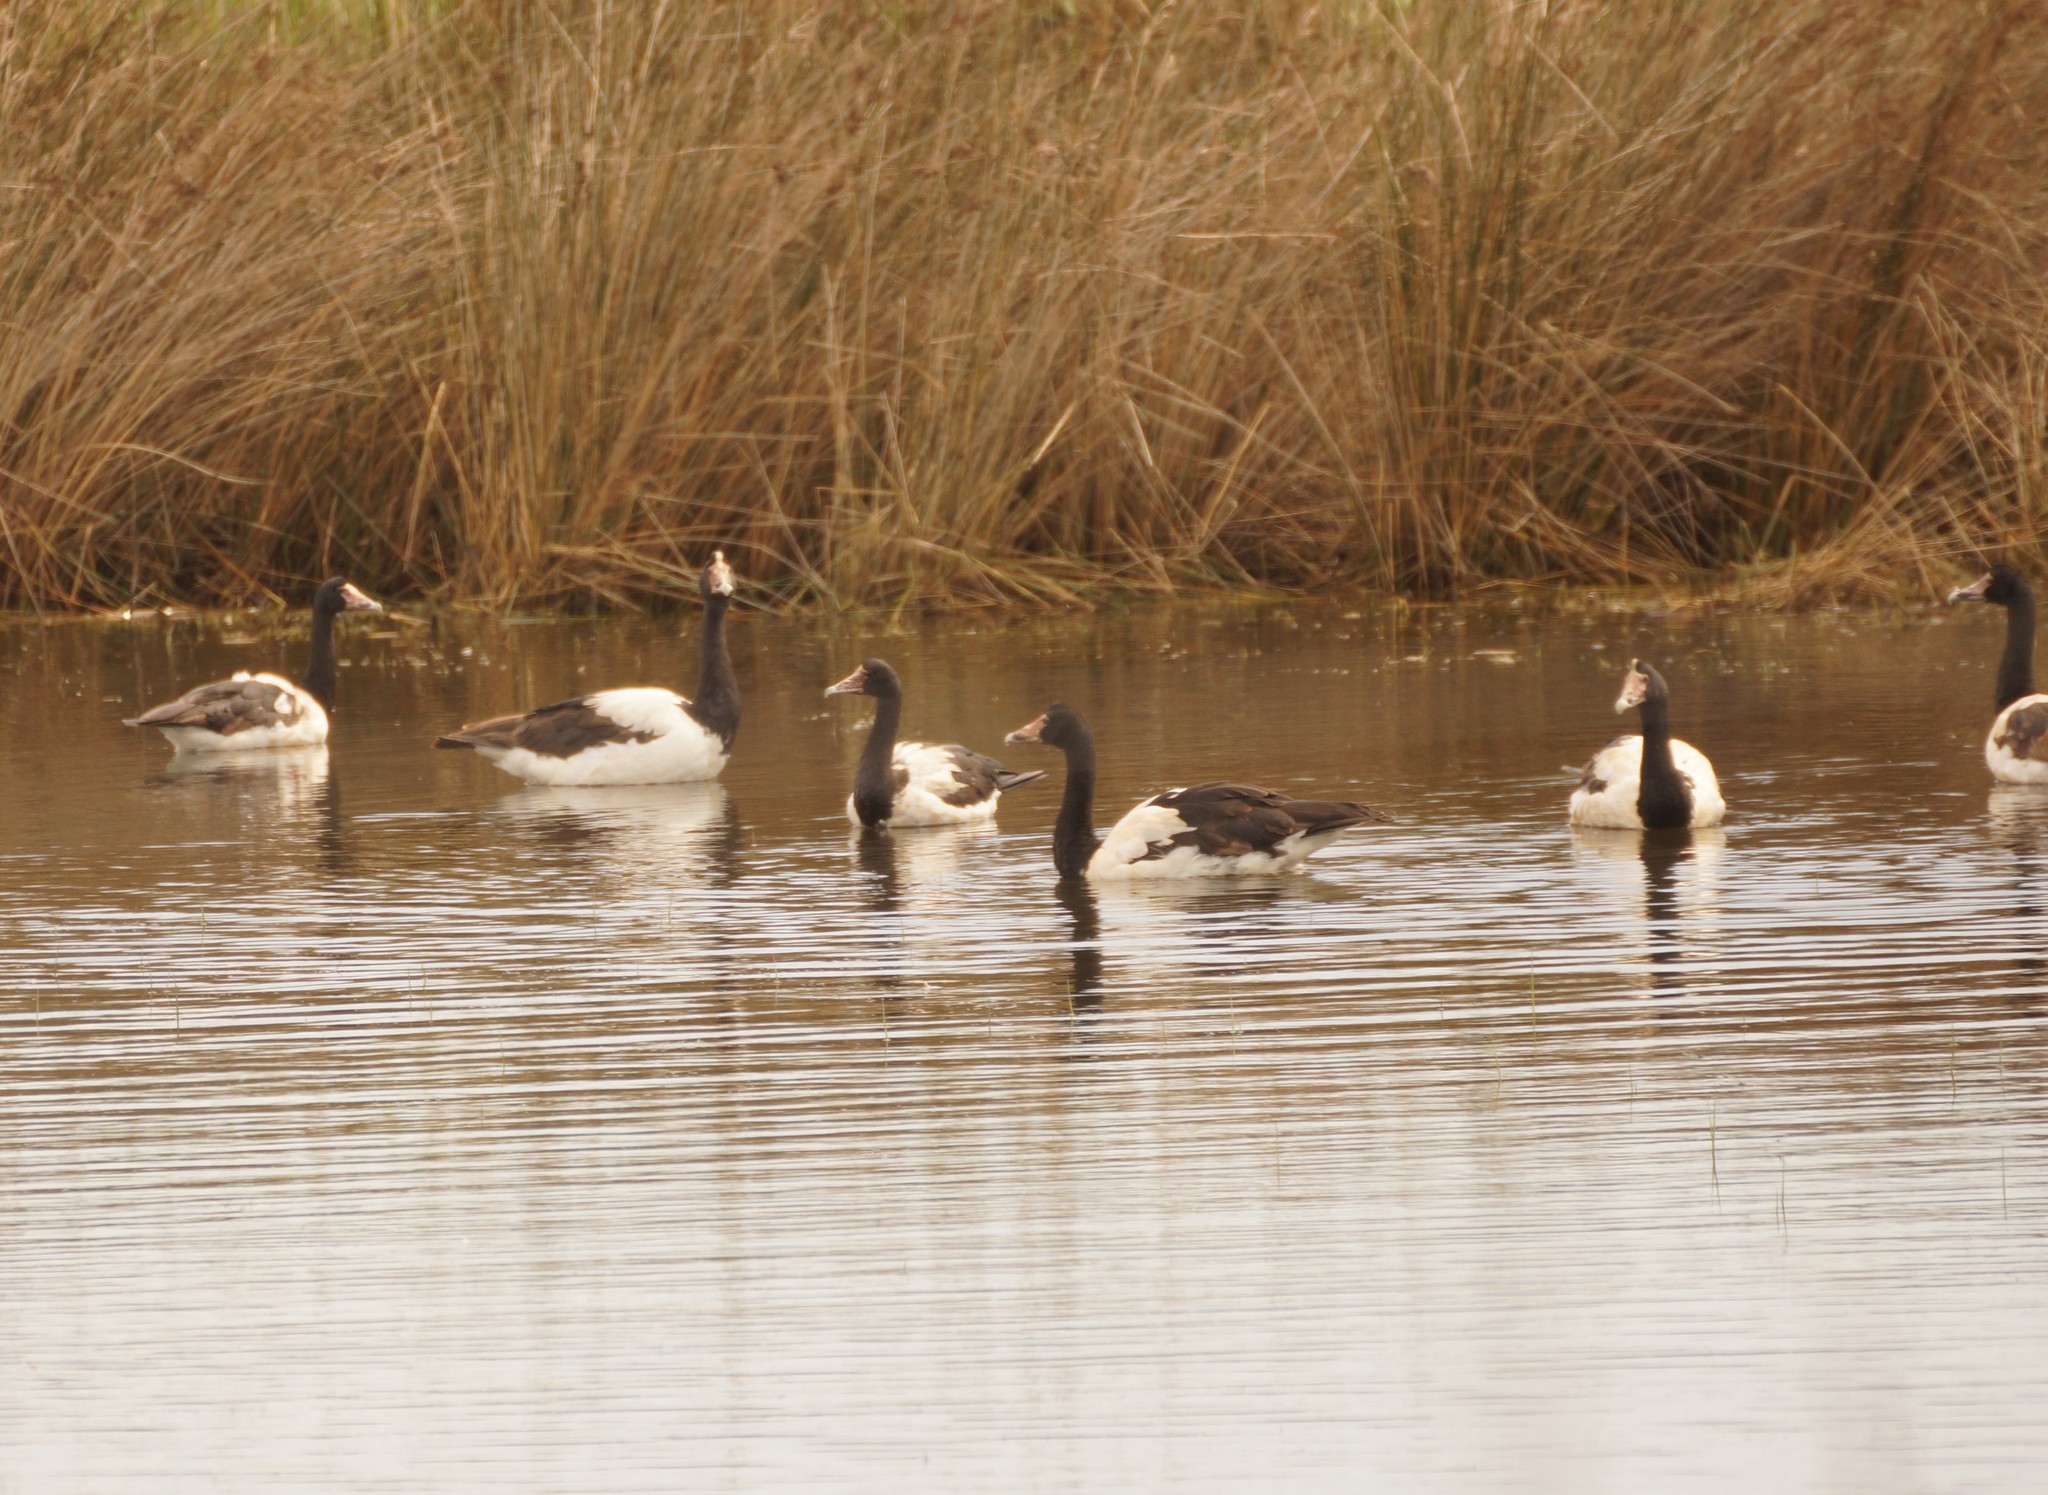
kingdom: Animalia
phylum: Chordata
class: Aves
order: Anseriformes
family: Anseranatidae
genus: Anseranas
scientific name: Anseranas semipalmata
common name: Magpie goose
